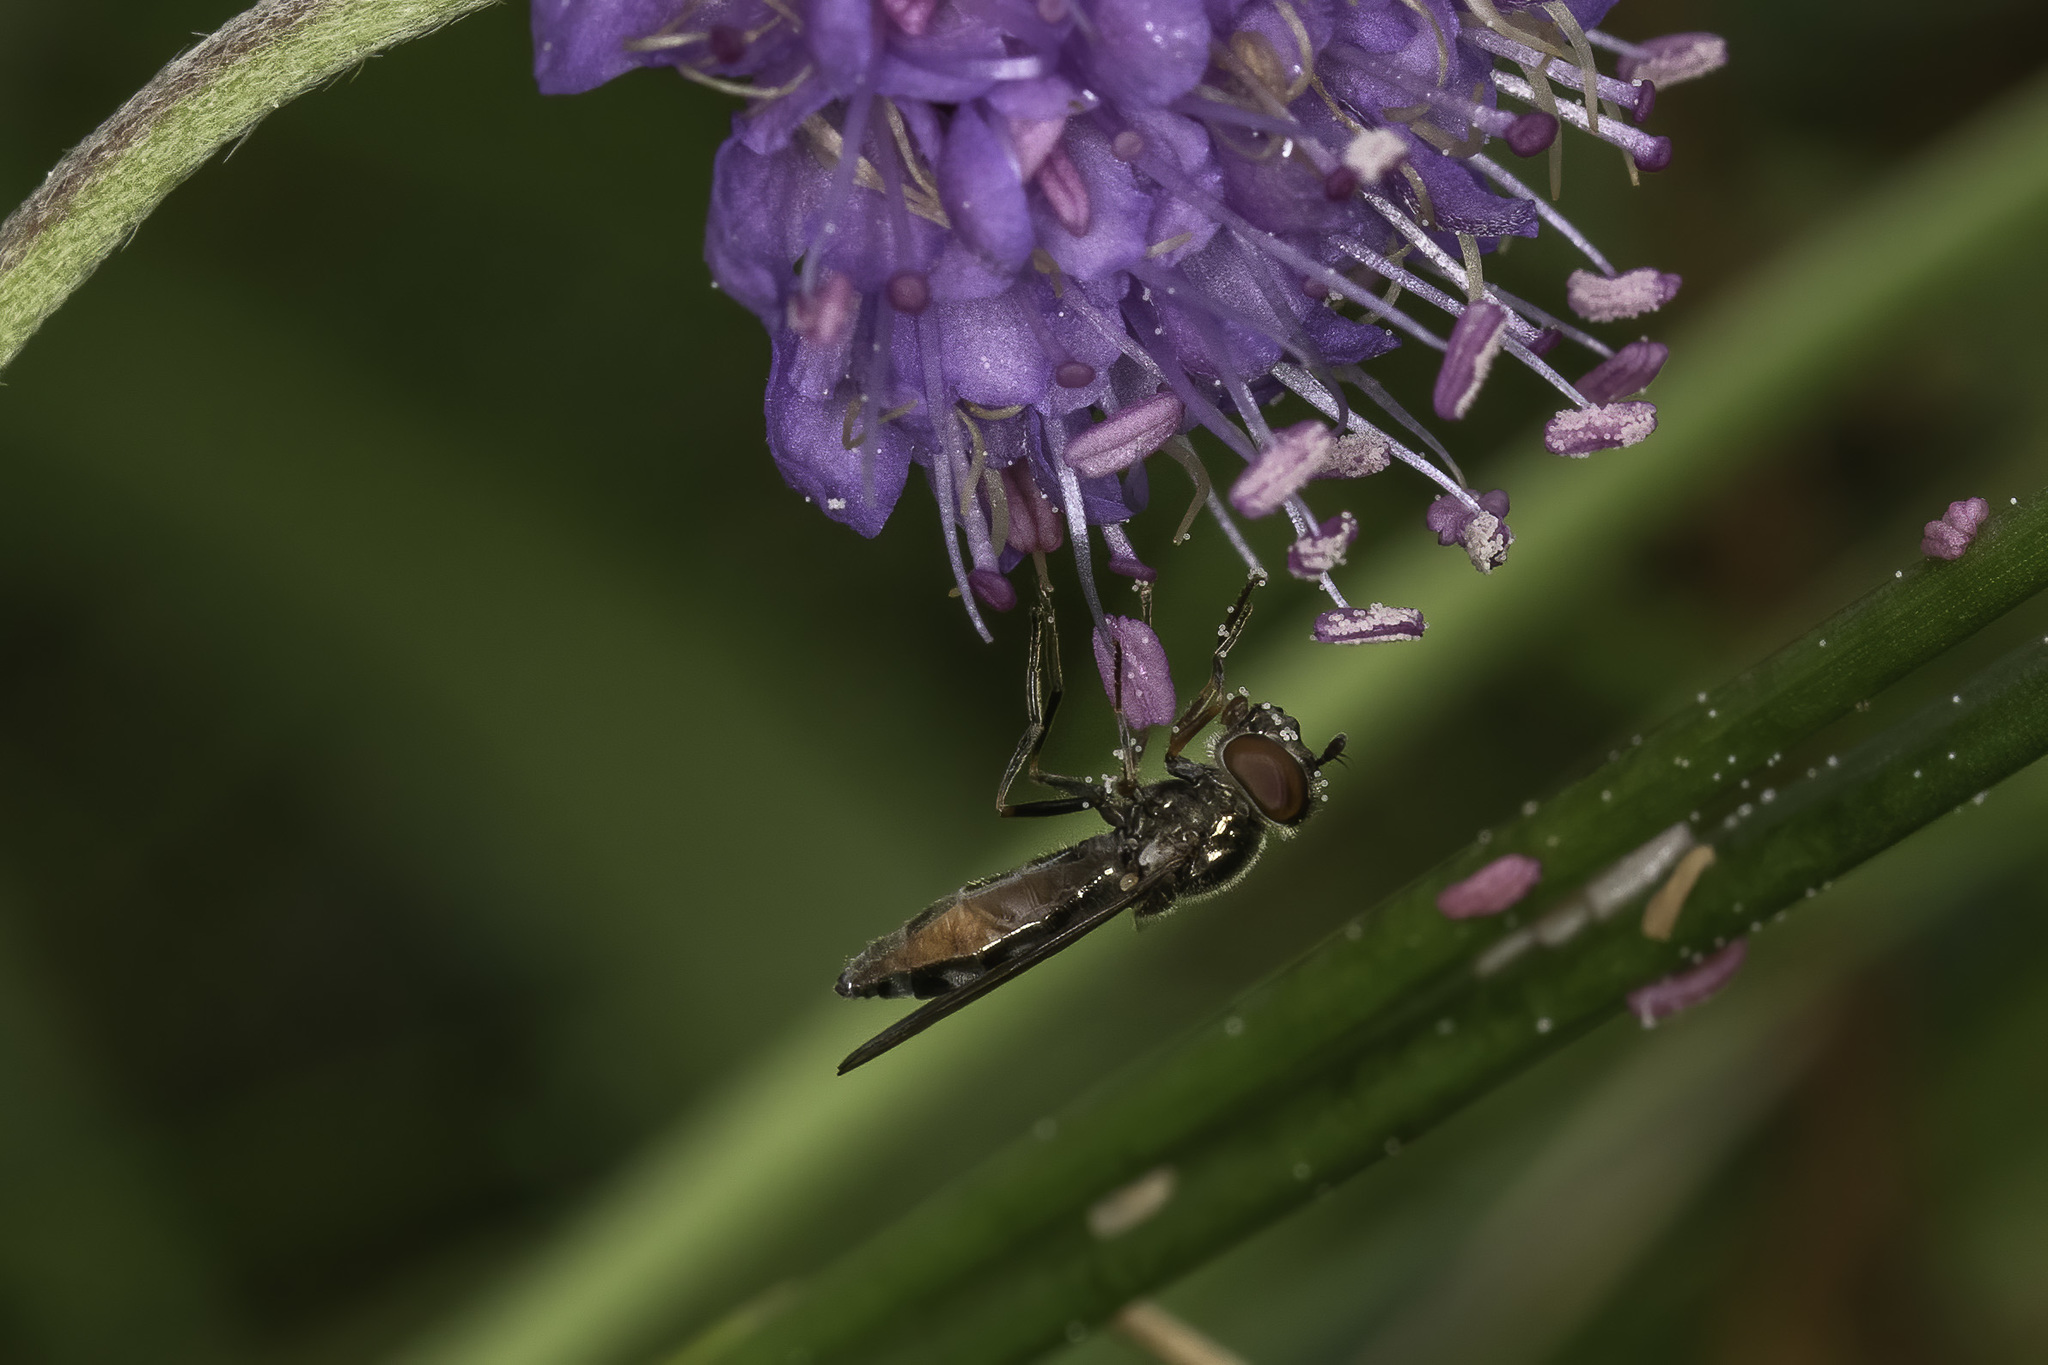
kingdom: Animalia
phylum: Arthropoda
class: Insecta
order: Diptera
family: Syrphidae
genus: Platycheirus
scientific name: Platycheirus albimanus
